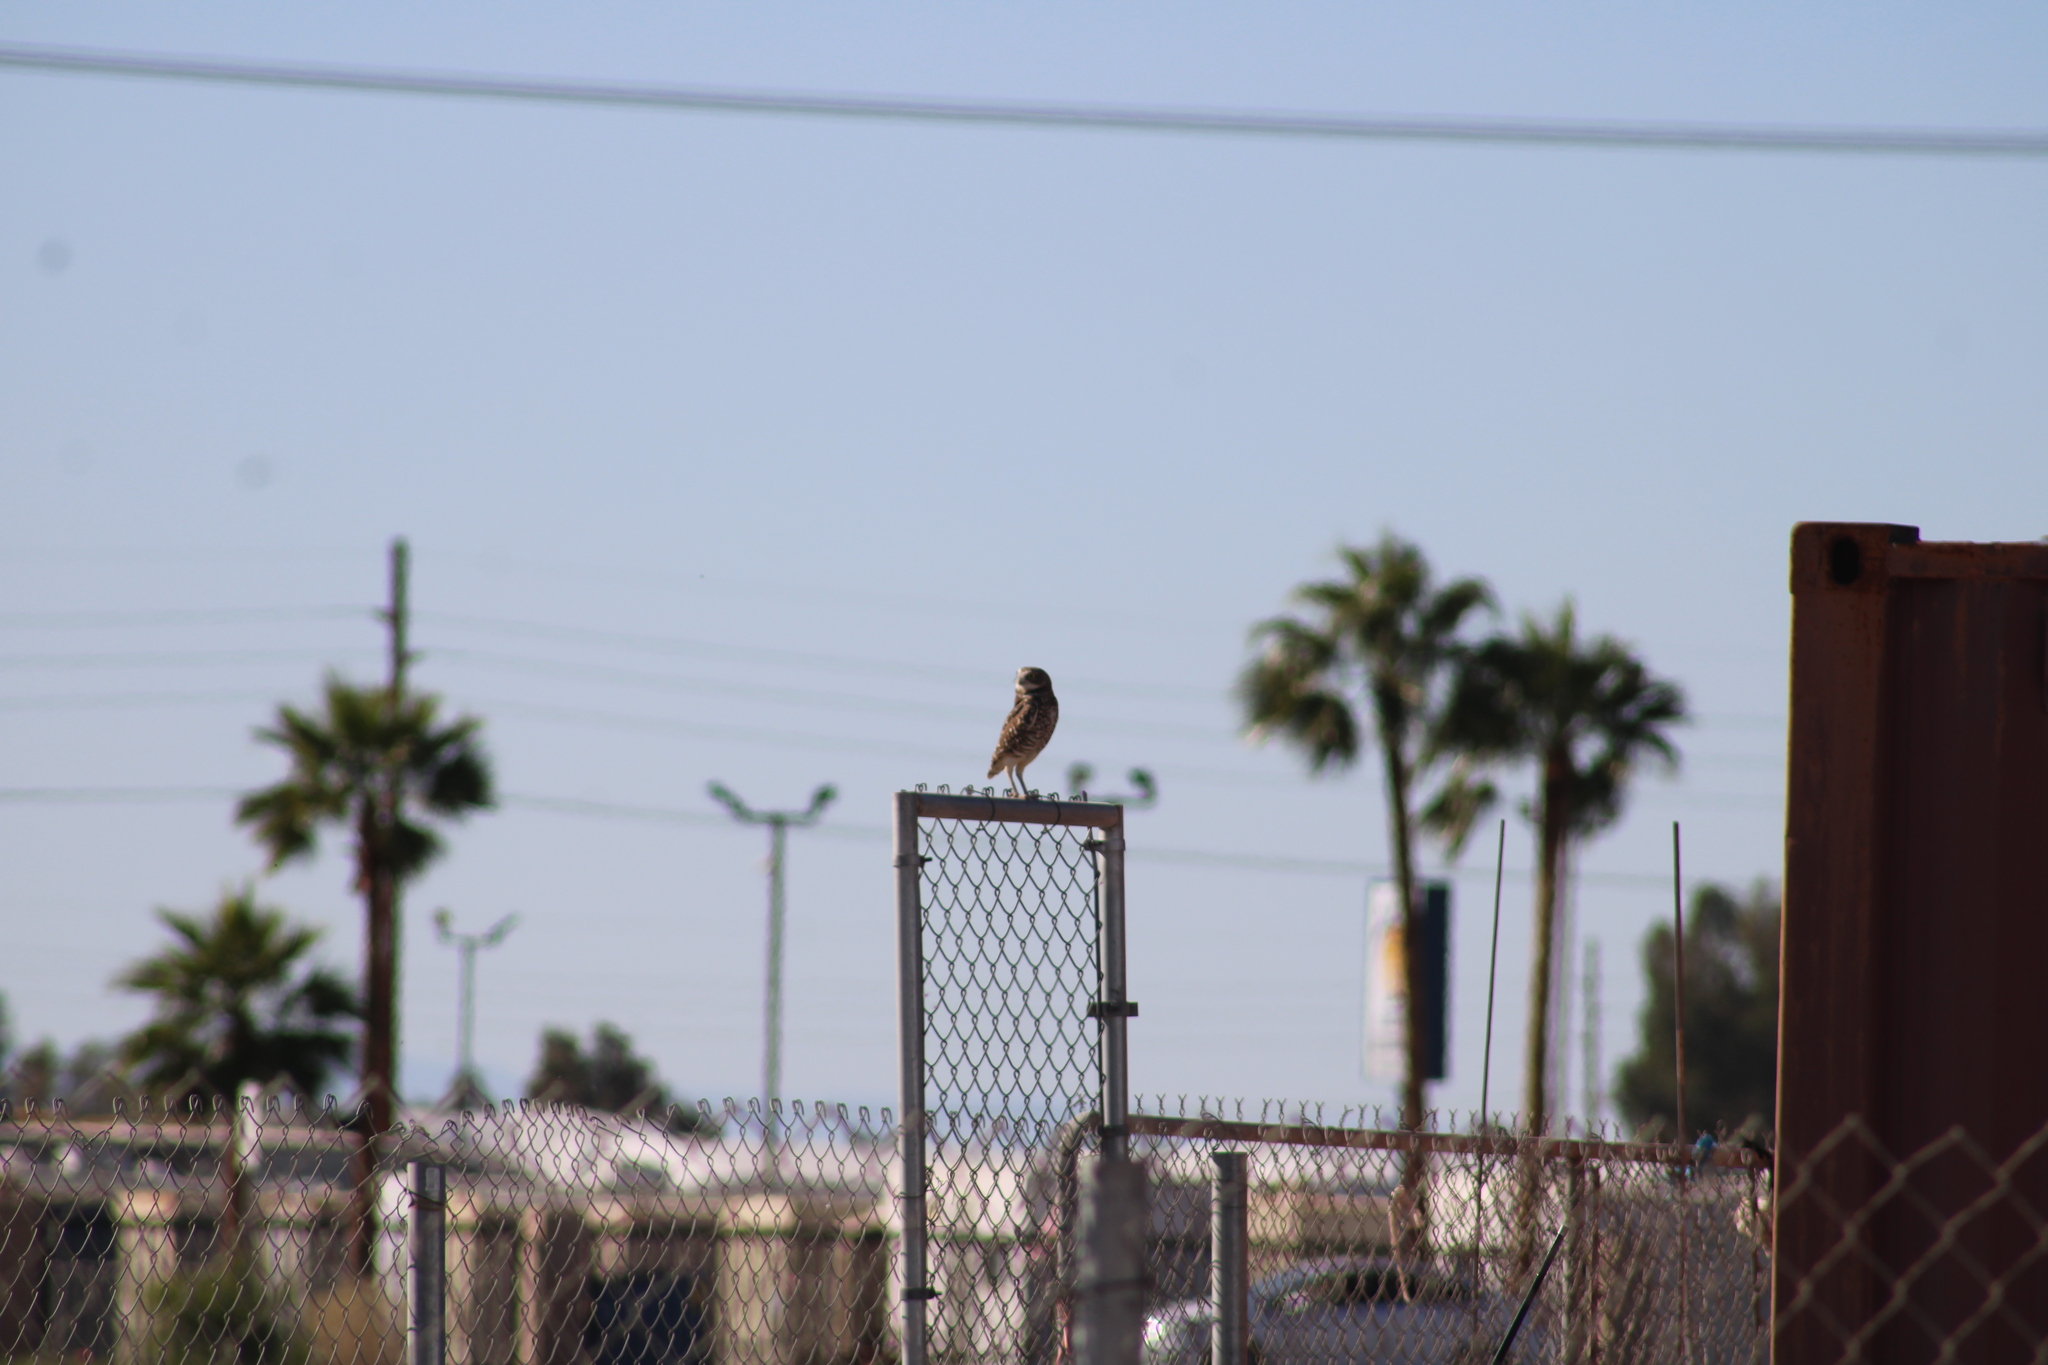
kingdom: Animalia
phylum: Chordata
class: Aves
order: Strigiformes
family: Strigidae
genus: Athene
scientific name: Athene cunicularia
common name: Burrowing owl
